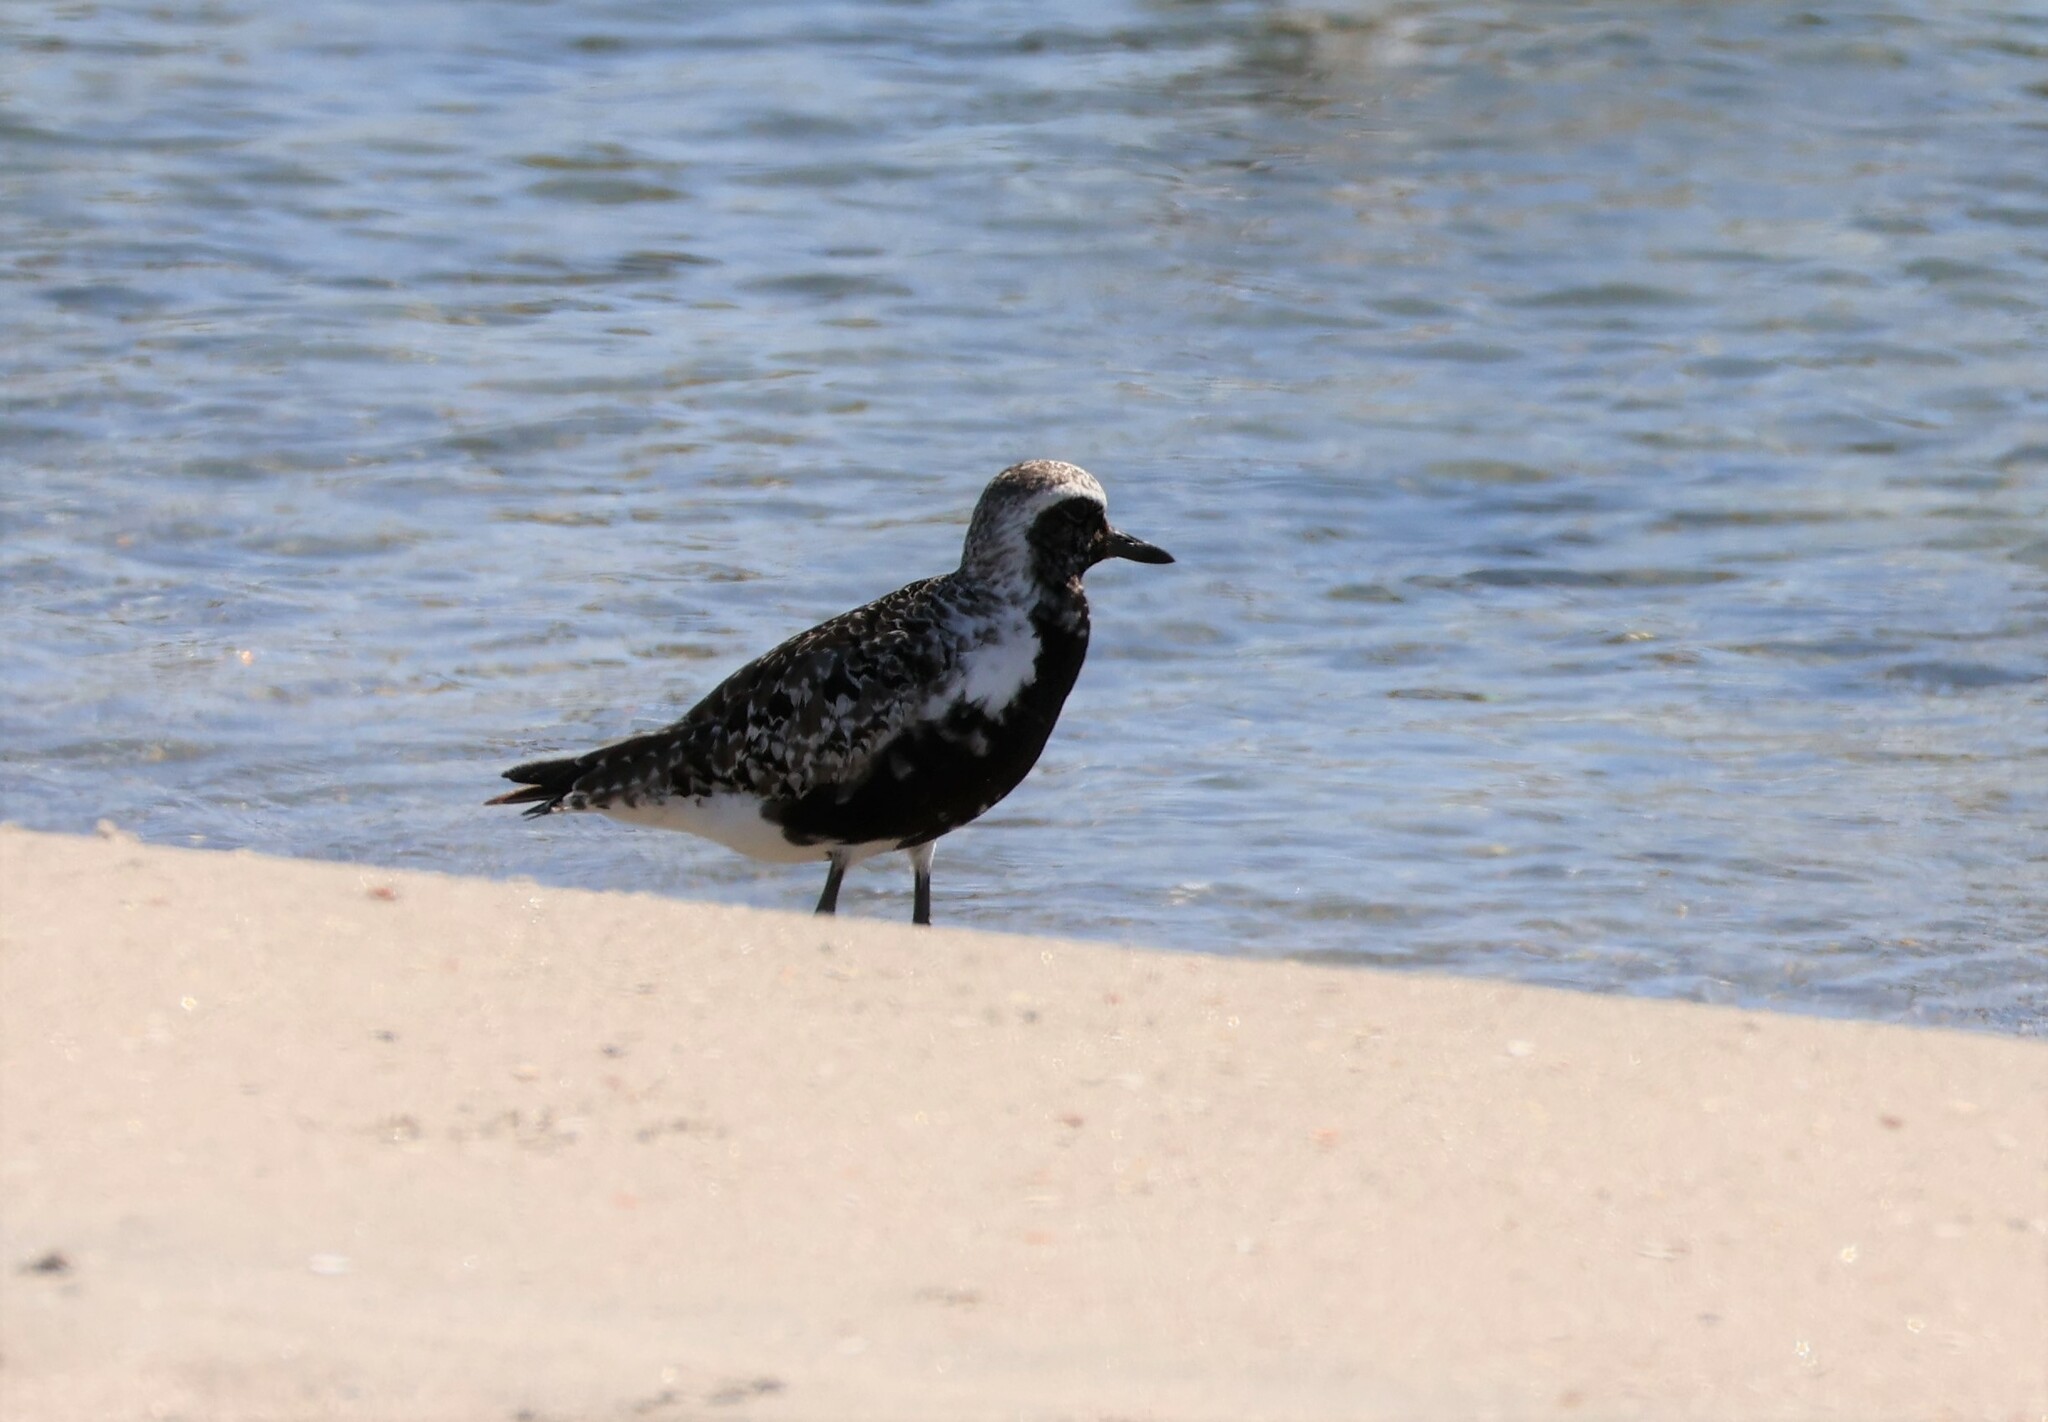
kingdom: Animalia
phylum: Chordata
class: Aves
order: Charadriiformes
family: Charadriidae
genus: Pluvialis
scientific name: Pluvialis squatarola
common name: Grey plover
